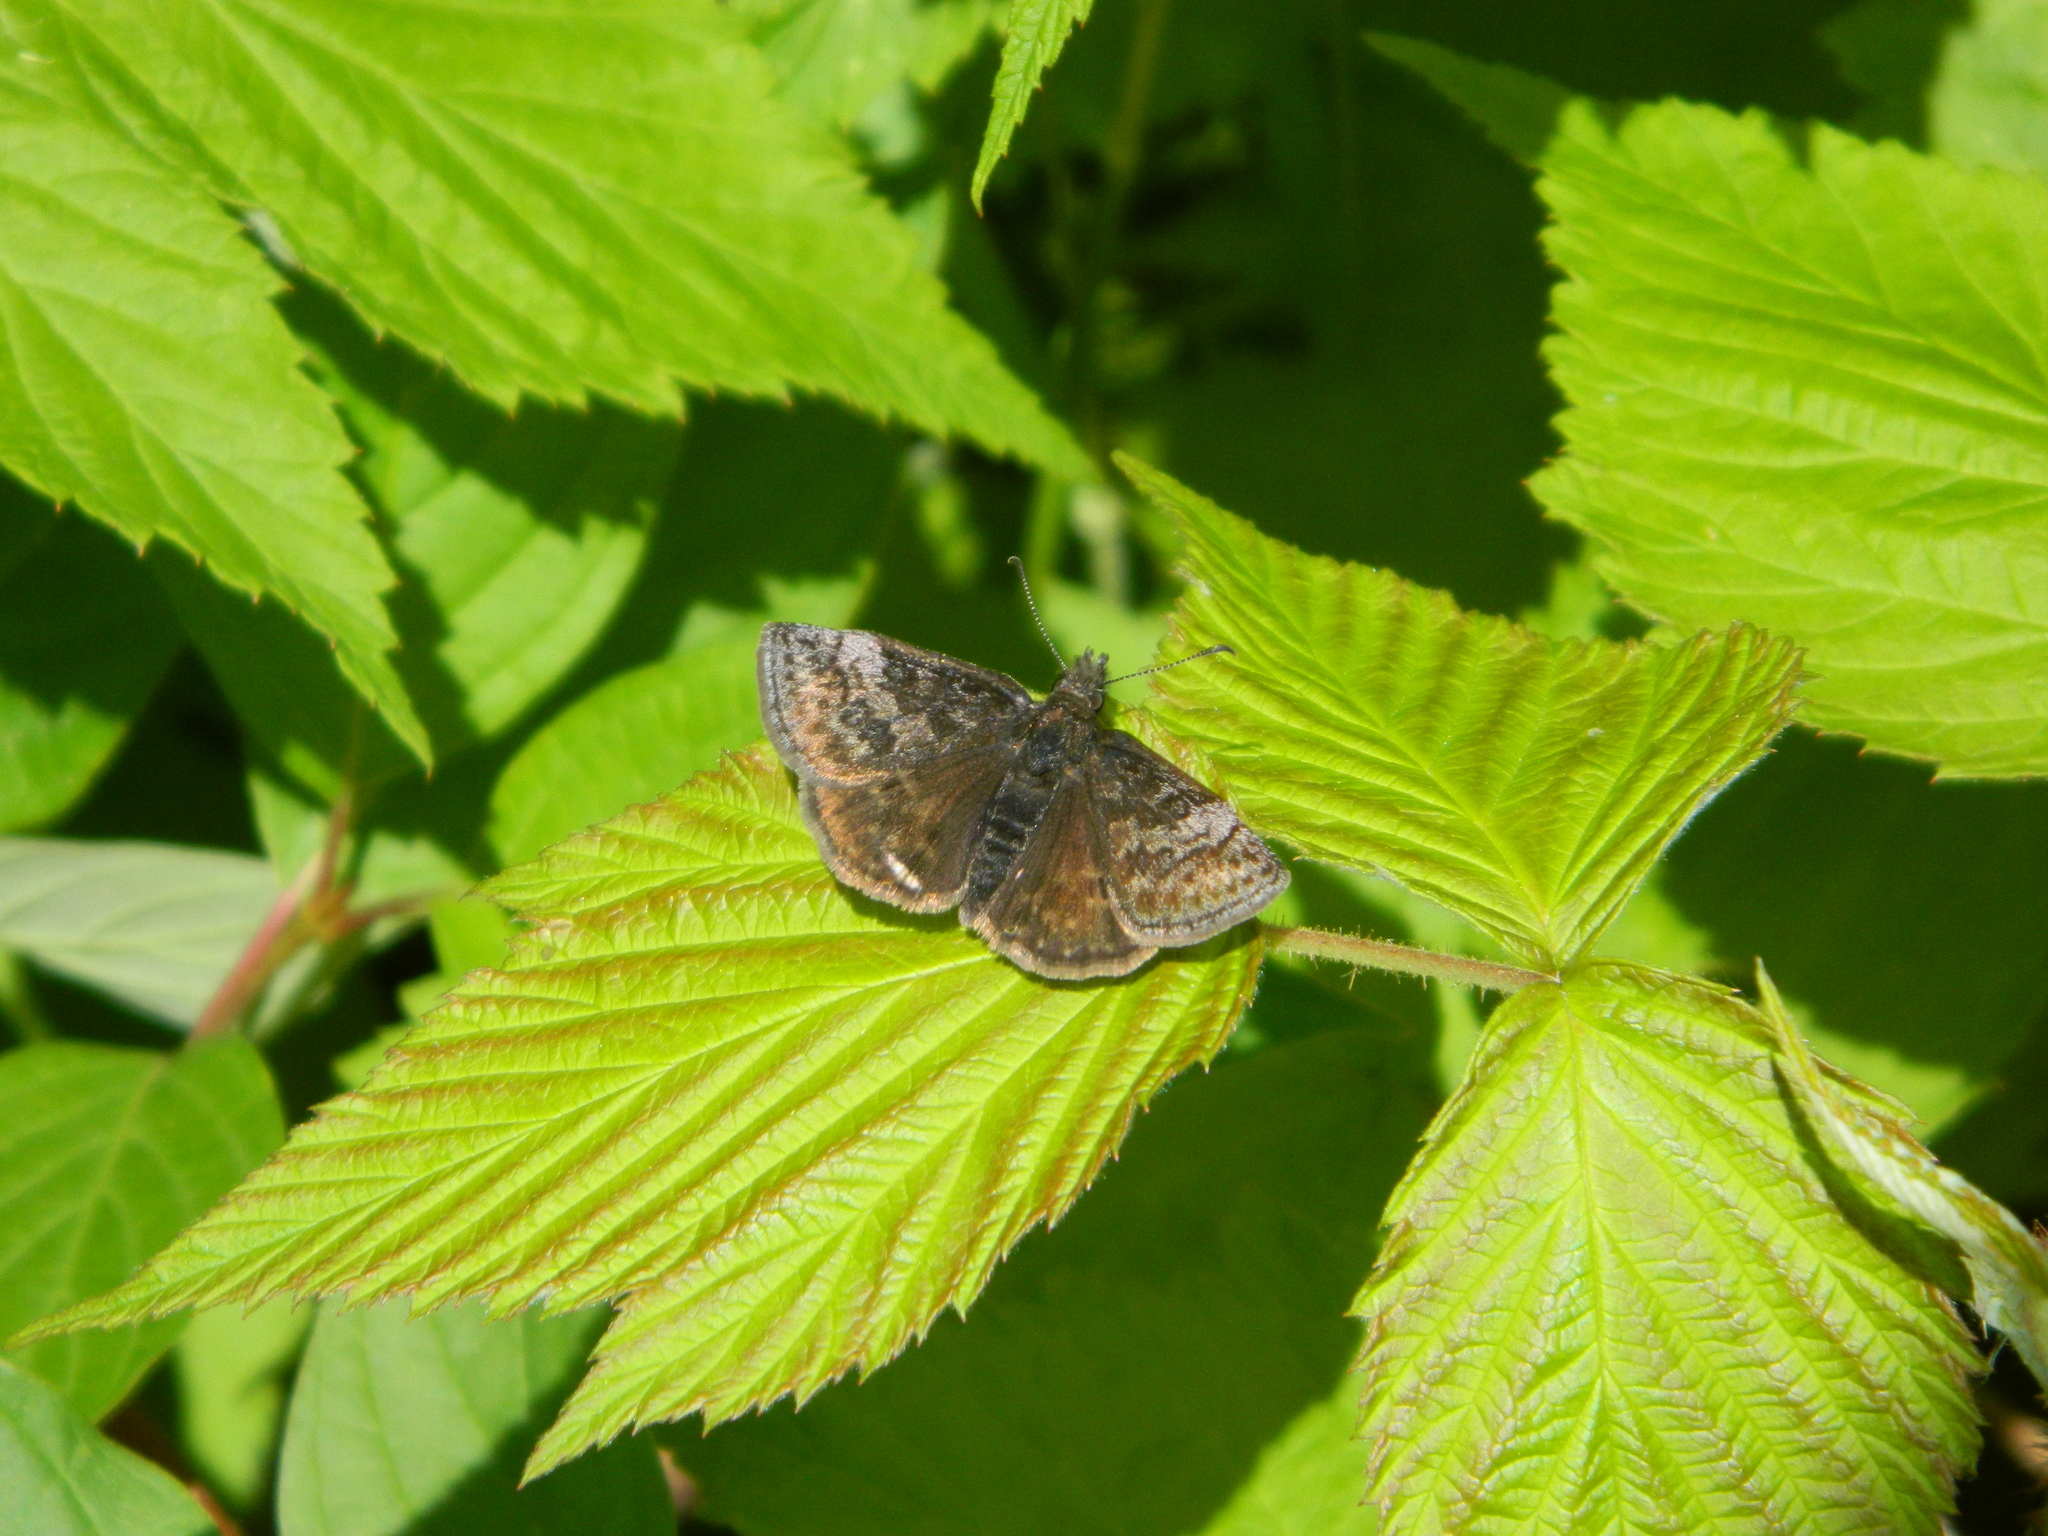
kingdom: Animalia
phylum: Arthropoda
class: Insecta
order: Lepidoptera
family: Hesperiidae
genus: Erynnis
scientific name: Erynnis icelus
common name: Dreamy duskywing
